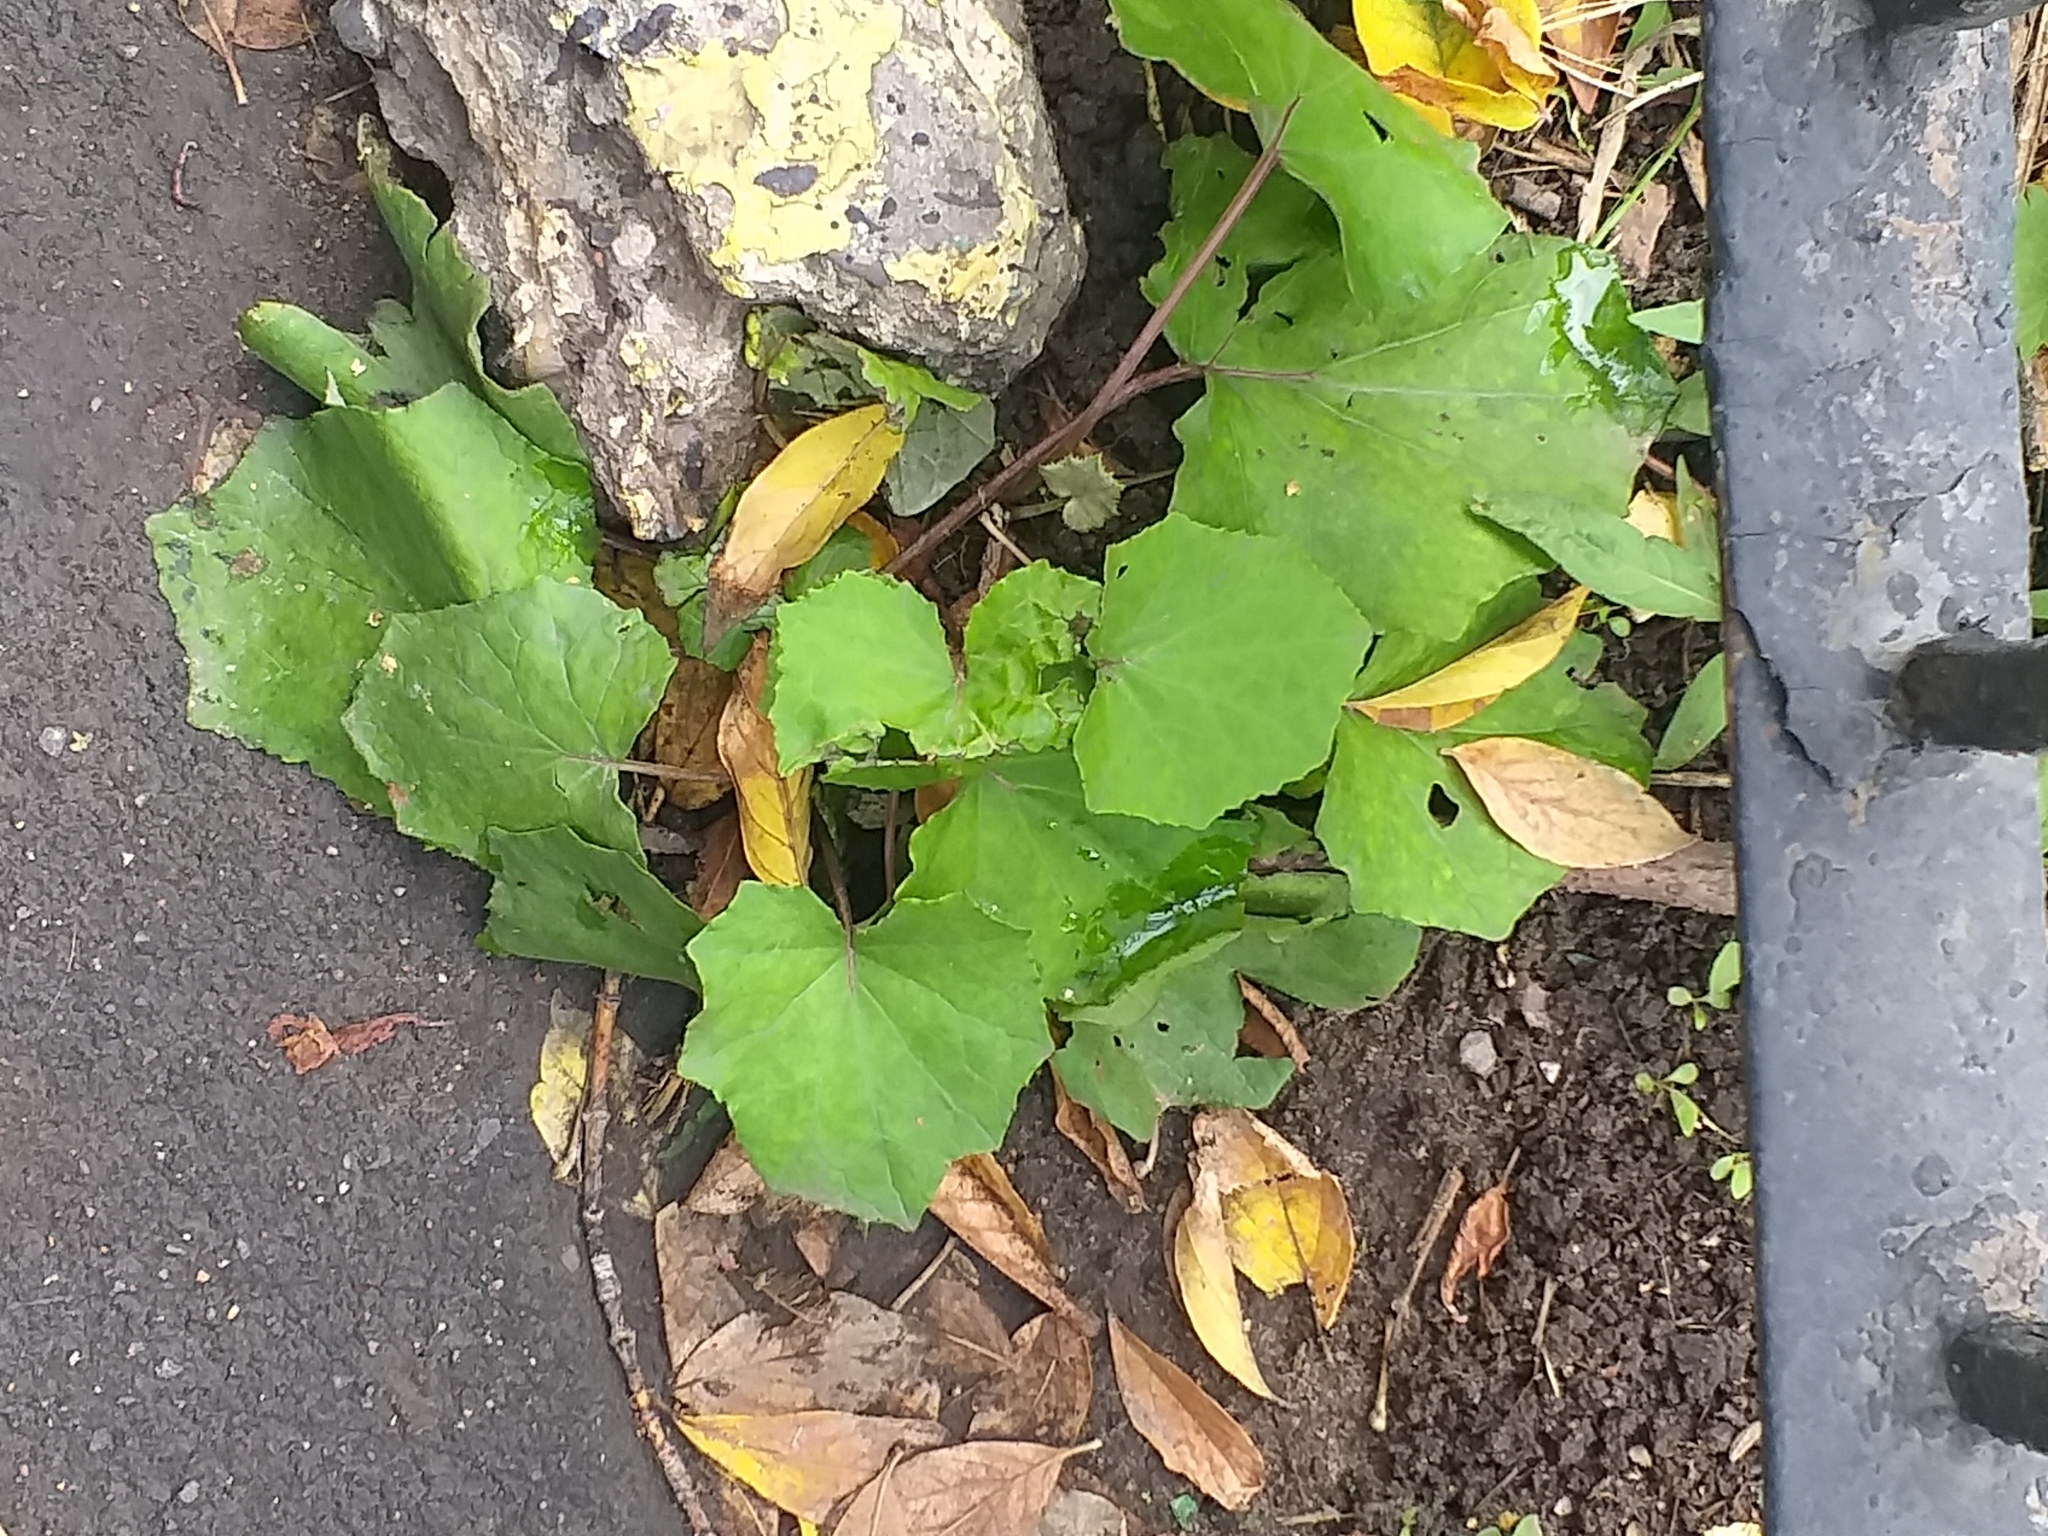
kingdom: Plantae
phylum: Tracheophyta
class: Magnoliopsida
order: Asterales
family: Asteraceae
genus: Tussilago
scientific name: Tussilago farfara
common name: Coltsfoot
